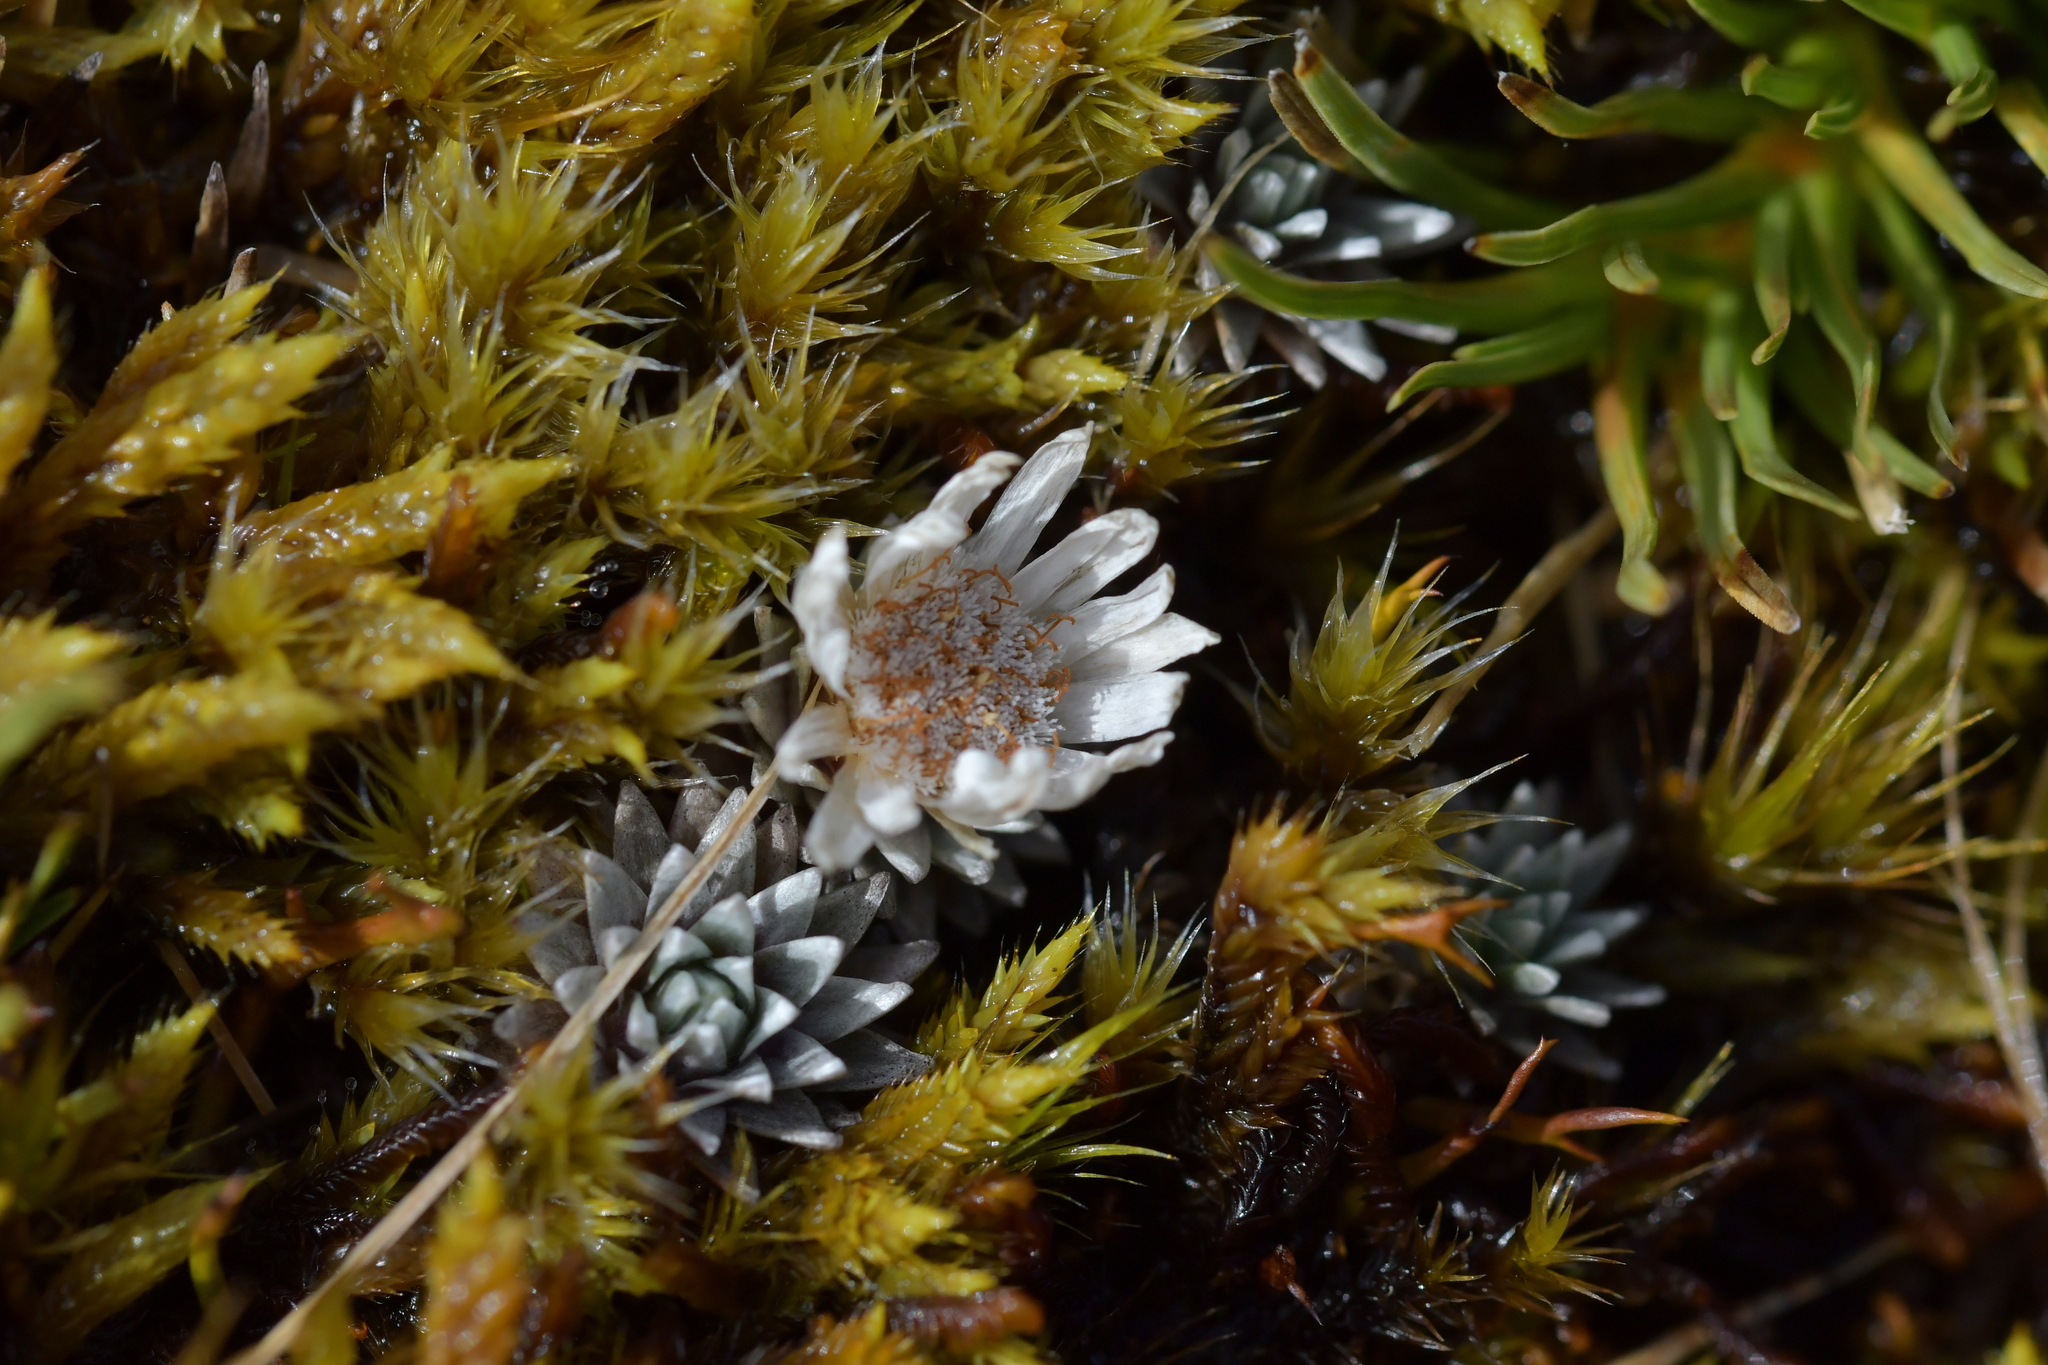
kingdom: Plantae
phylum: Tracheophyta
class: Magnoliopsida
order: Asterales
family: Asteraceae
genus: Raoulia
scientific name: Raoulia grandiflora
